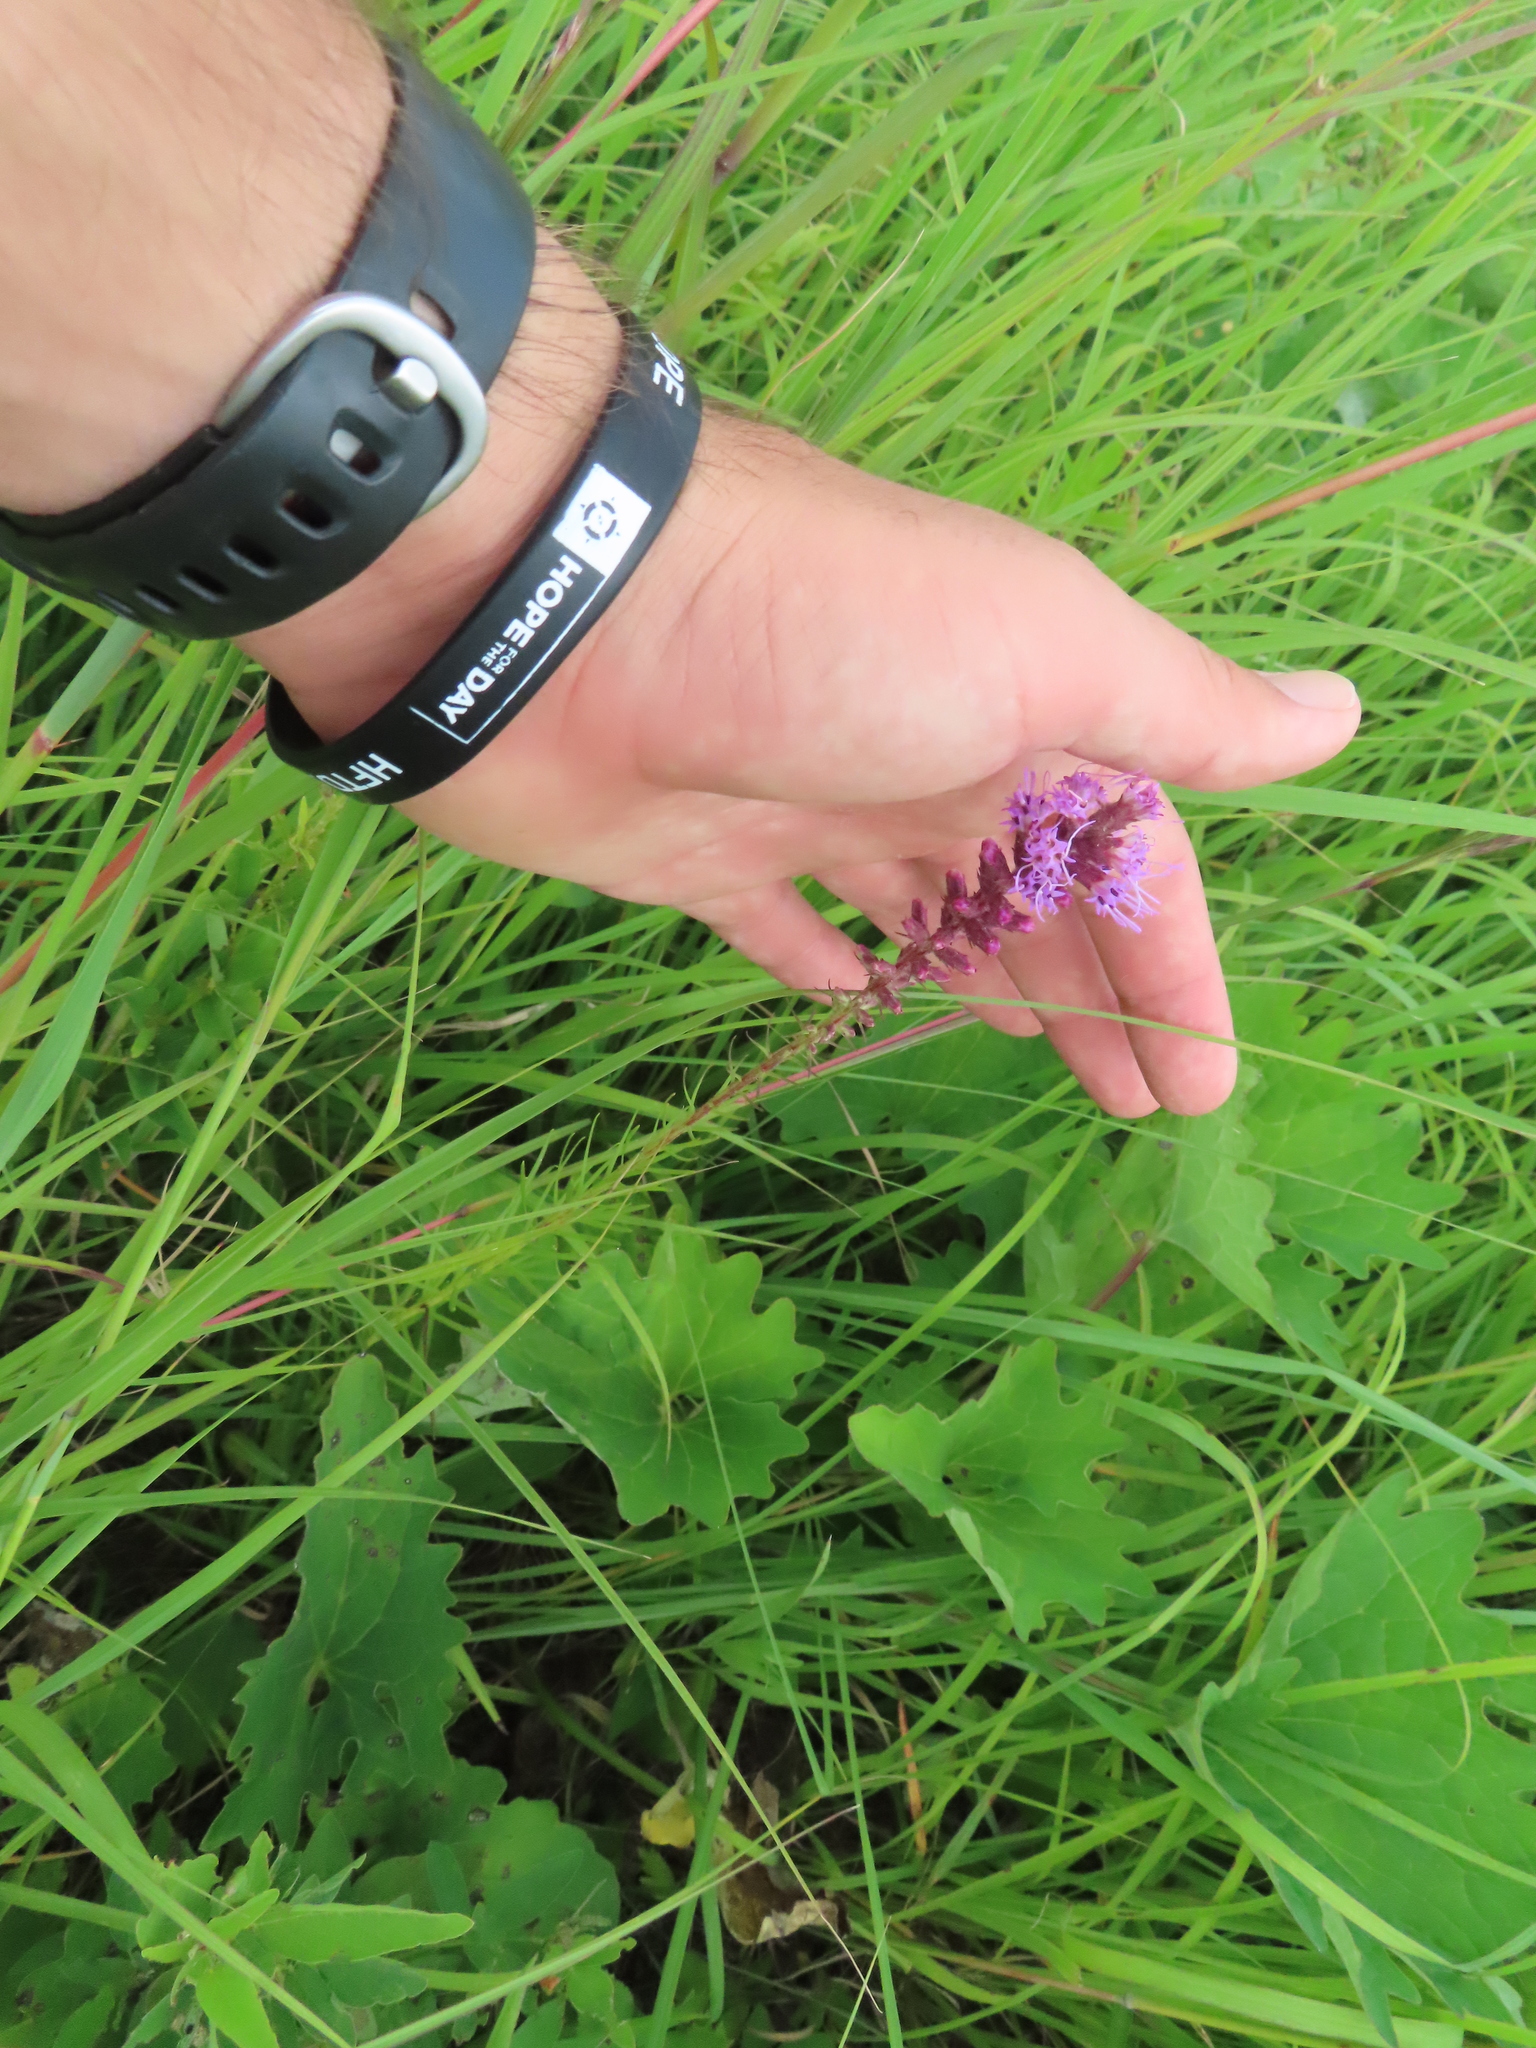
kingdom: Plantae
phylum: Tracheophyta
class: Magnoliopsida
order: Asterales
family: Asteraceae
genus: Liatris
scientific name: Liatris spicata
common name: Florist gayfeather
